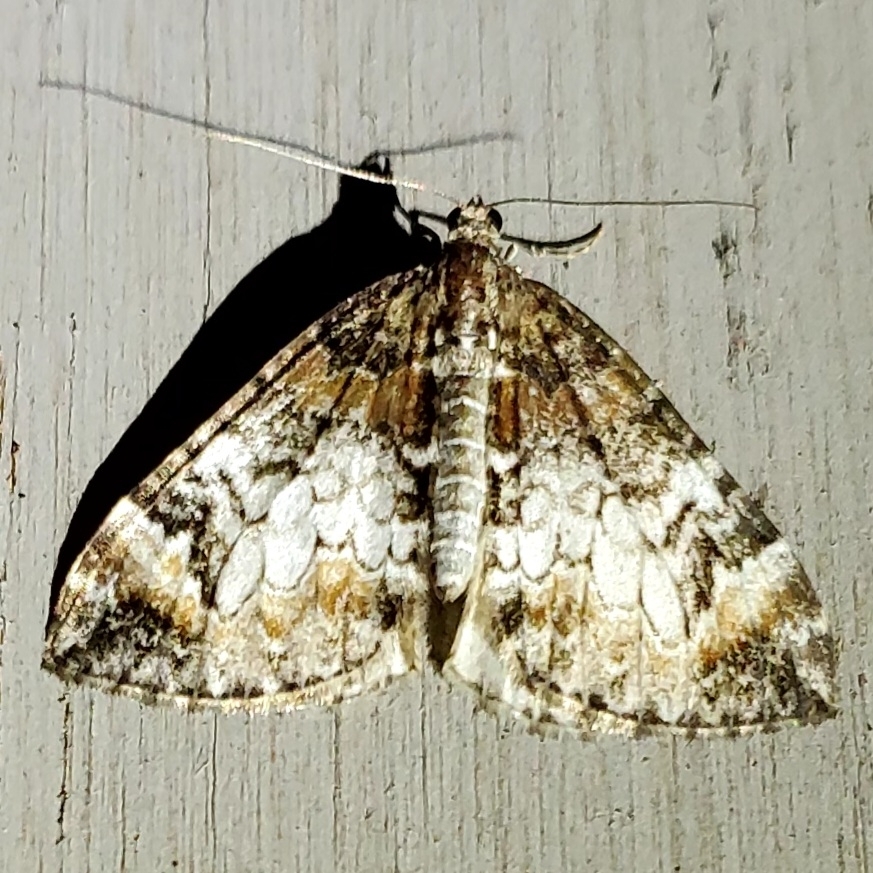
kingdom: Animalia
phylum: Arthropoda
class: Insecta
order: Lepidoptera
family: Geometridae
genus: Dysstroma
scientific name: Dysstroma truncata
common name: Common marbled carpet
